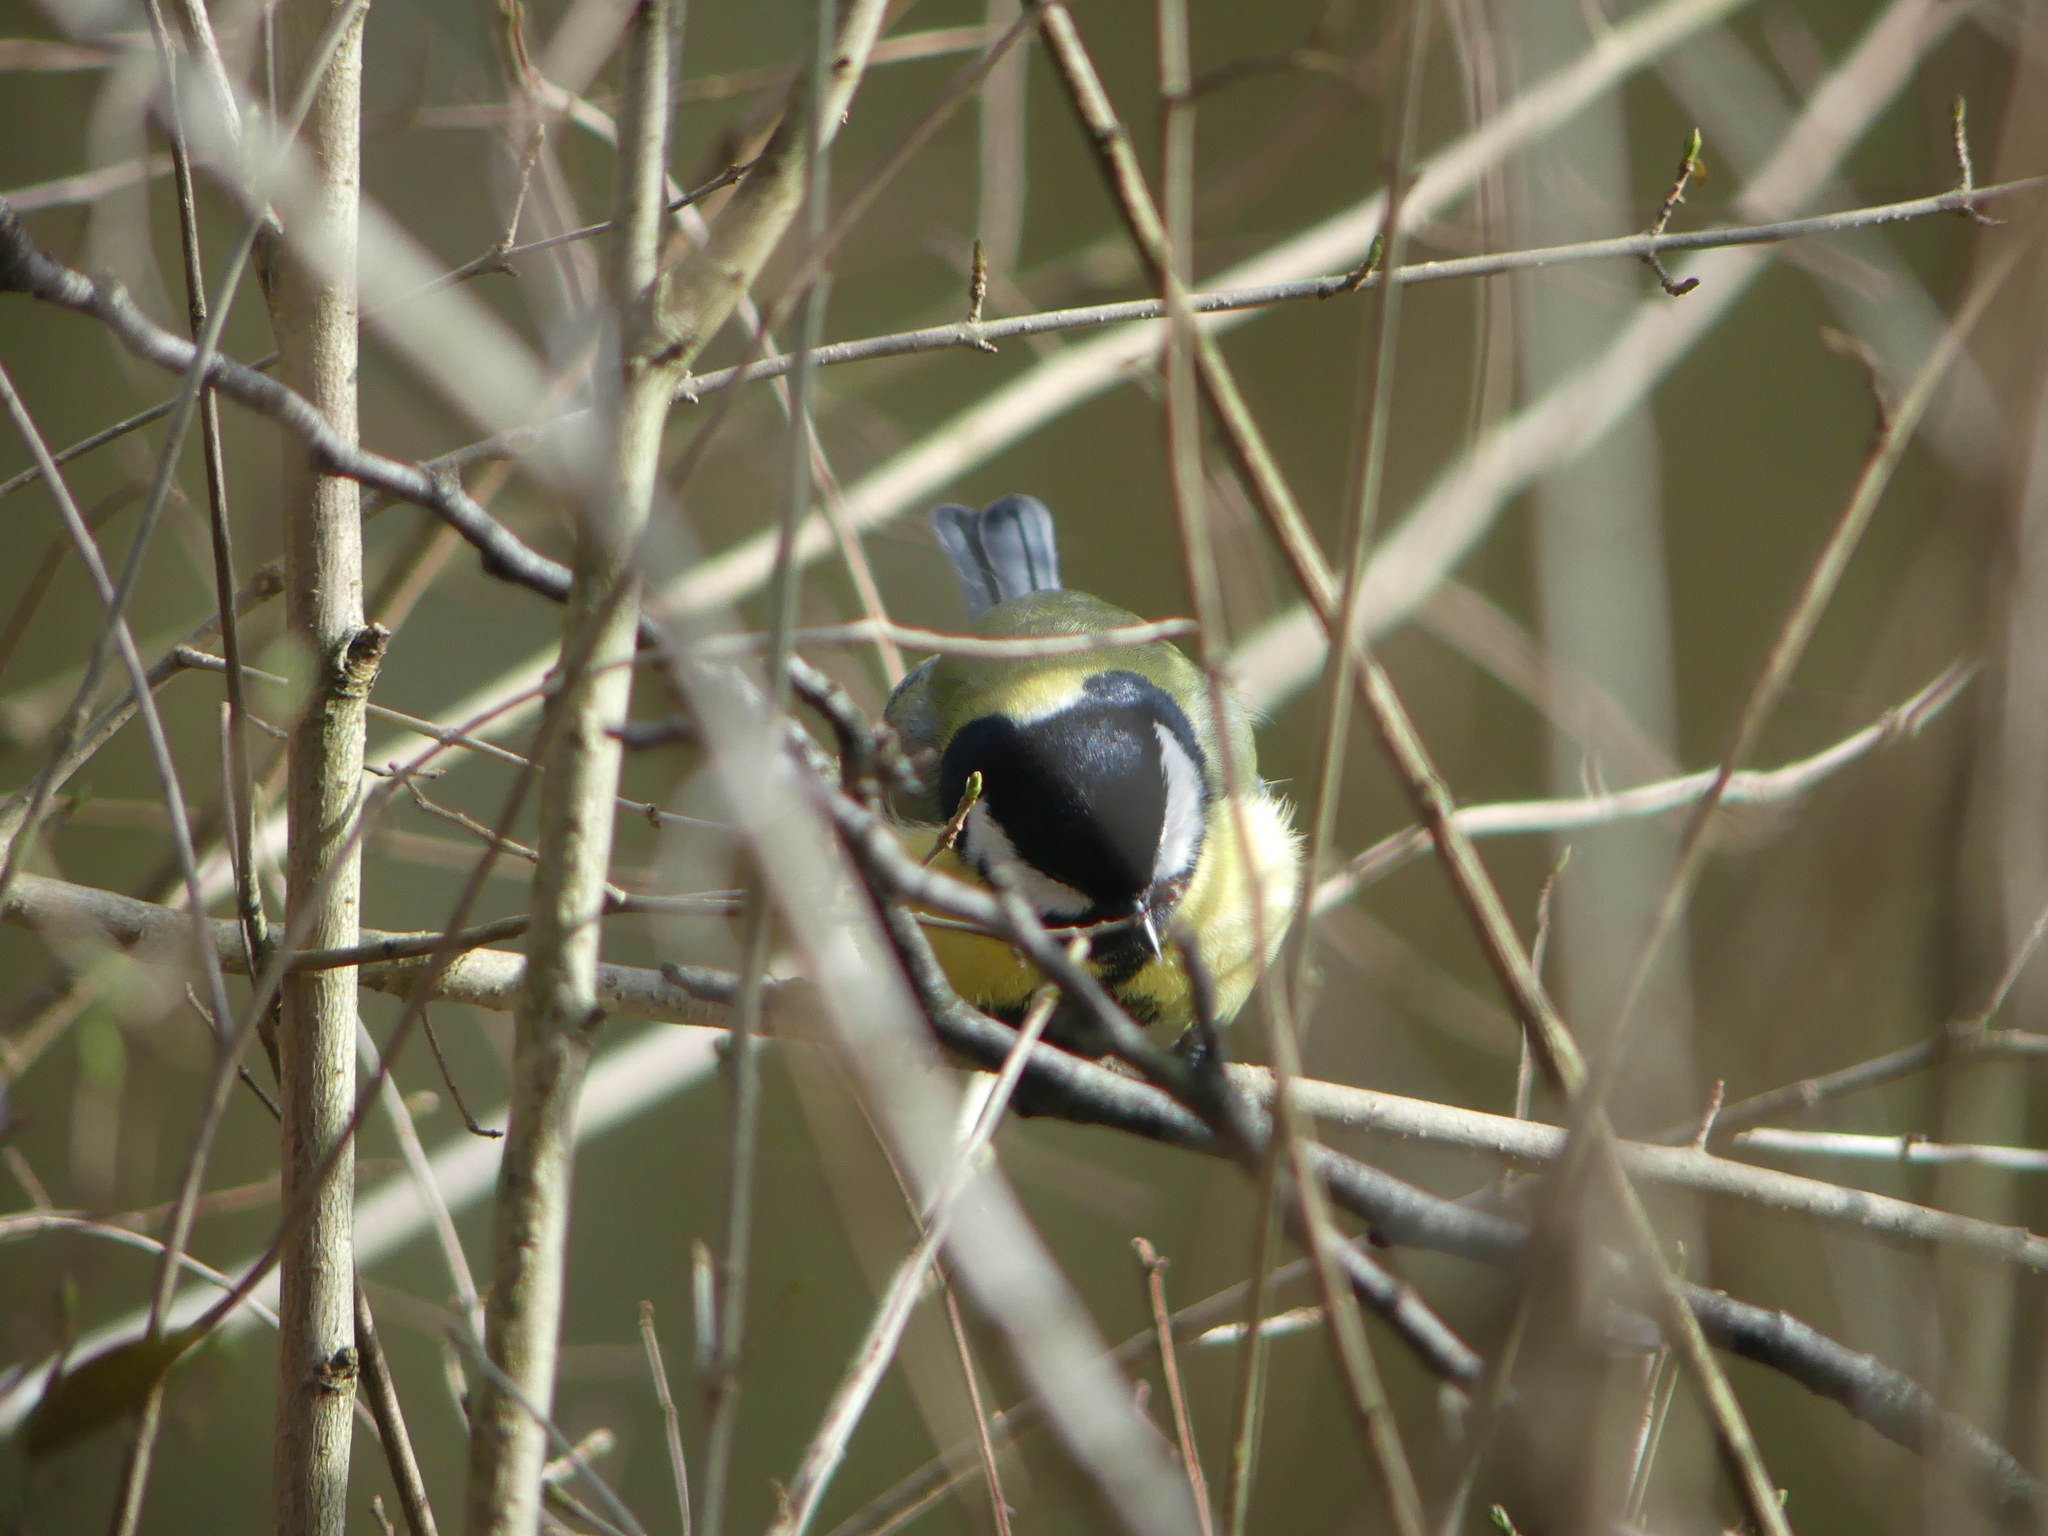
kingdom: Animalia
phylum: Chordata
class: Aves
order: Passeriformes
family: Paridae
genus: Parus
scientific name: Parus major
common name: Great tit
